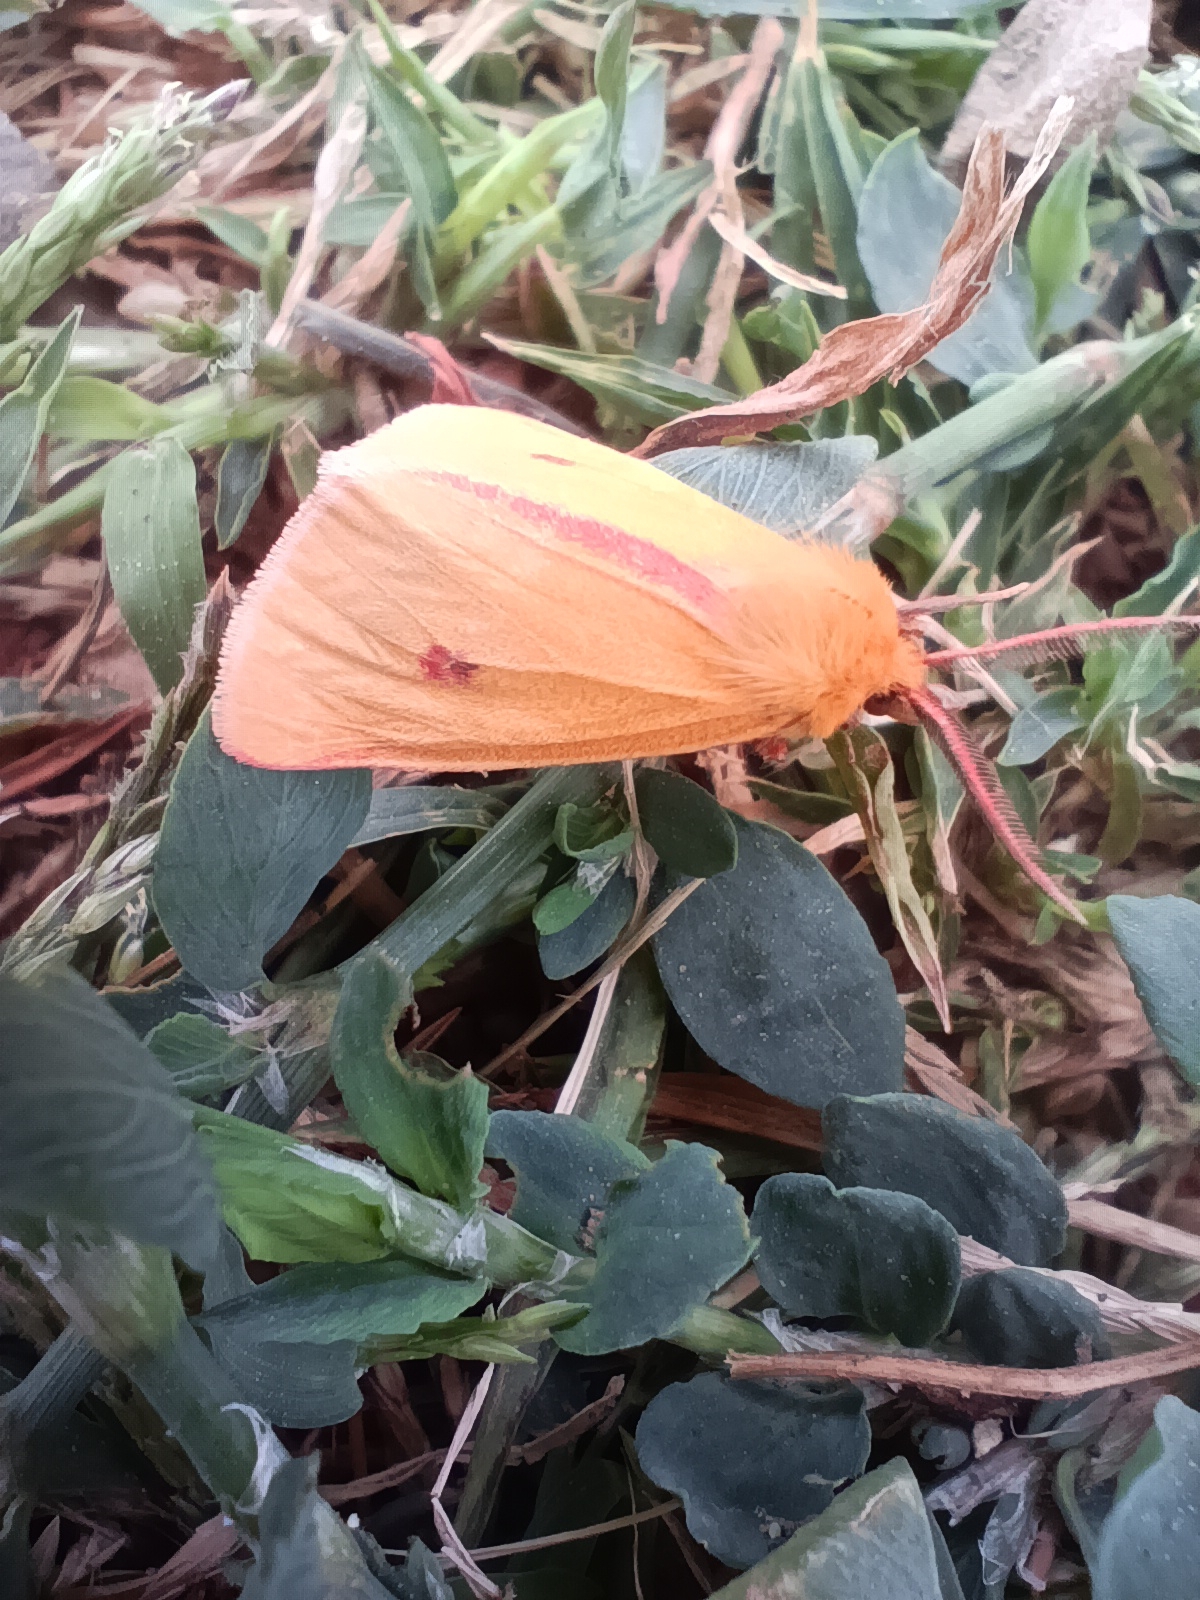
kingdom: Animalia
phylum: Arthropoda
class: Insecta
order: Lepidoptera
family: Erebidae
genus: Diacrisia
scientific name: Diacrisia sannio
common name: Clouded buff
